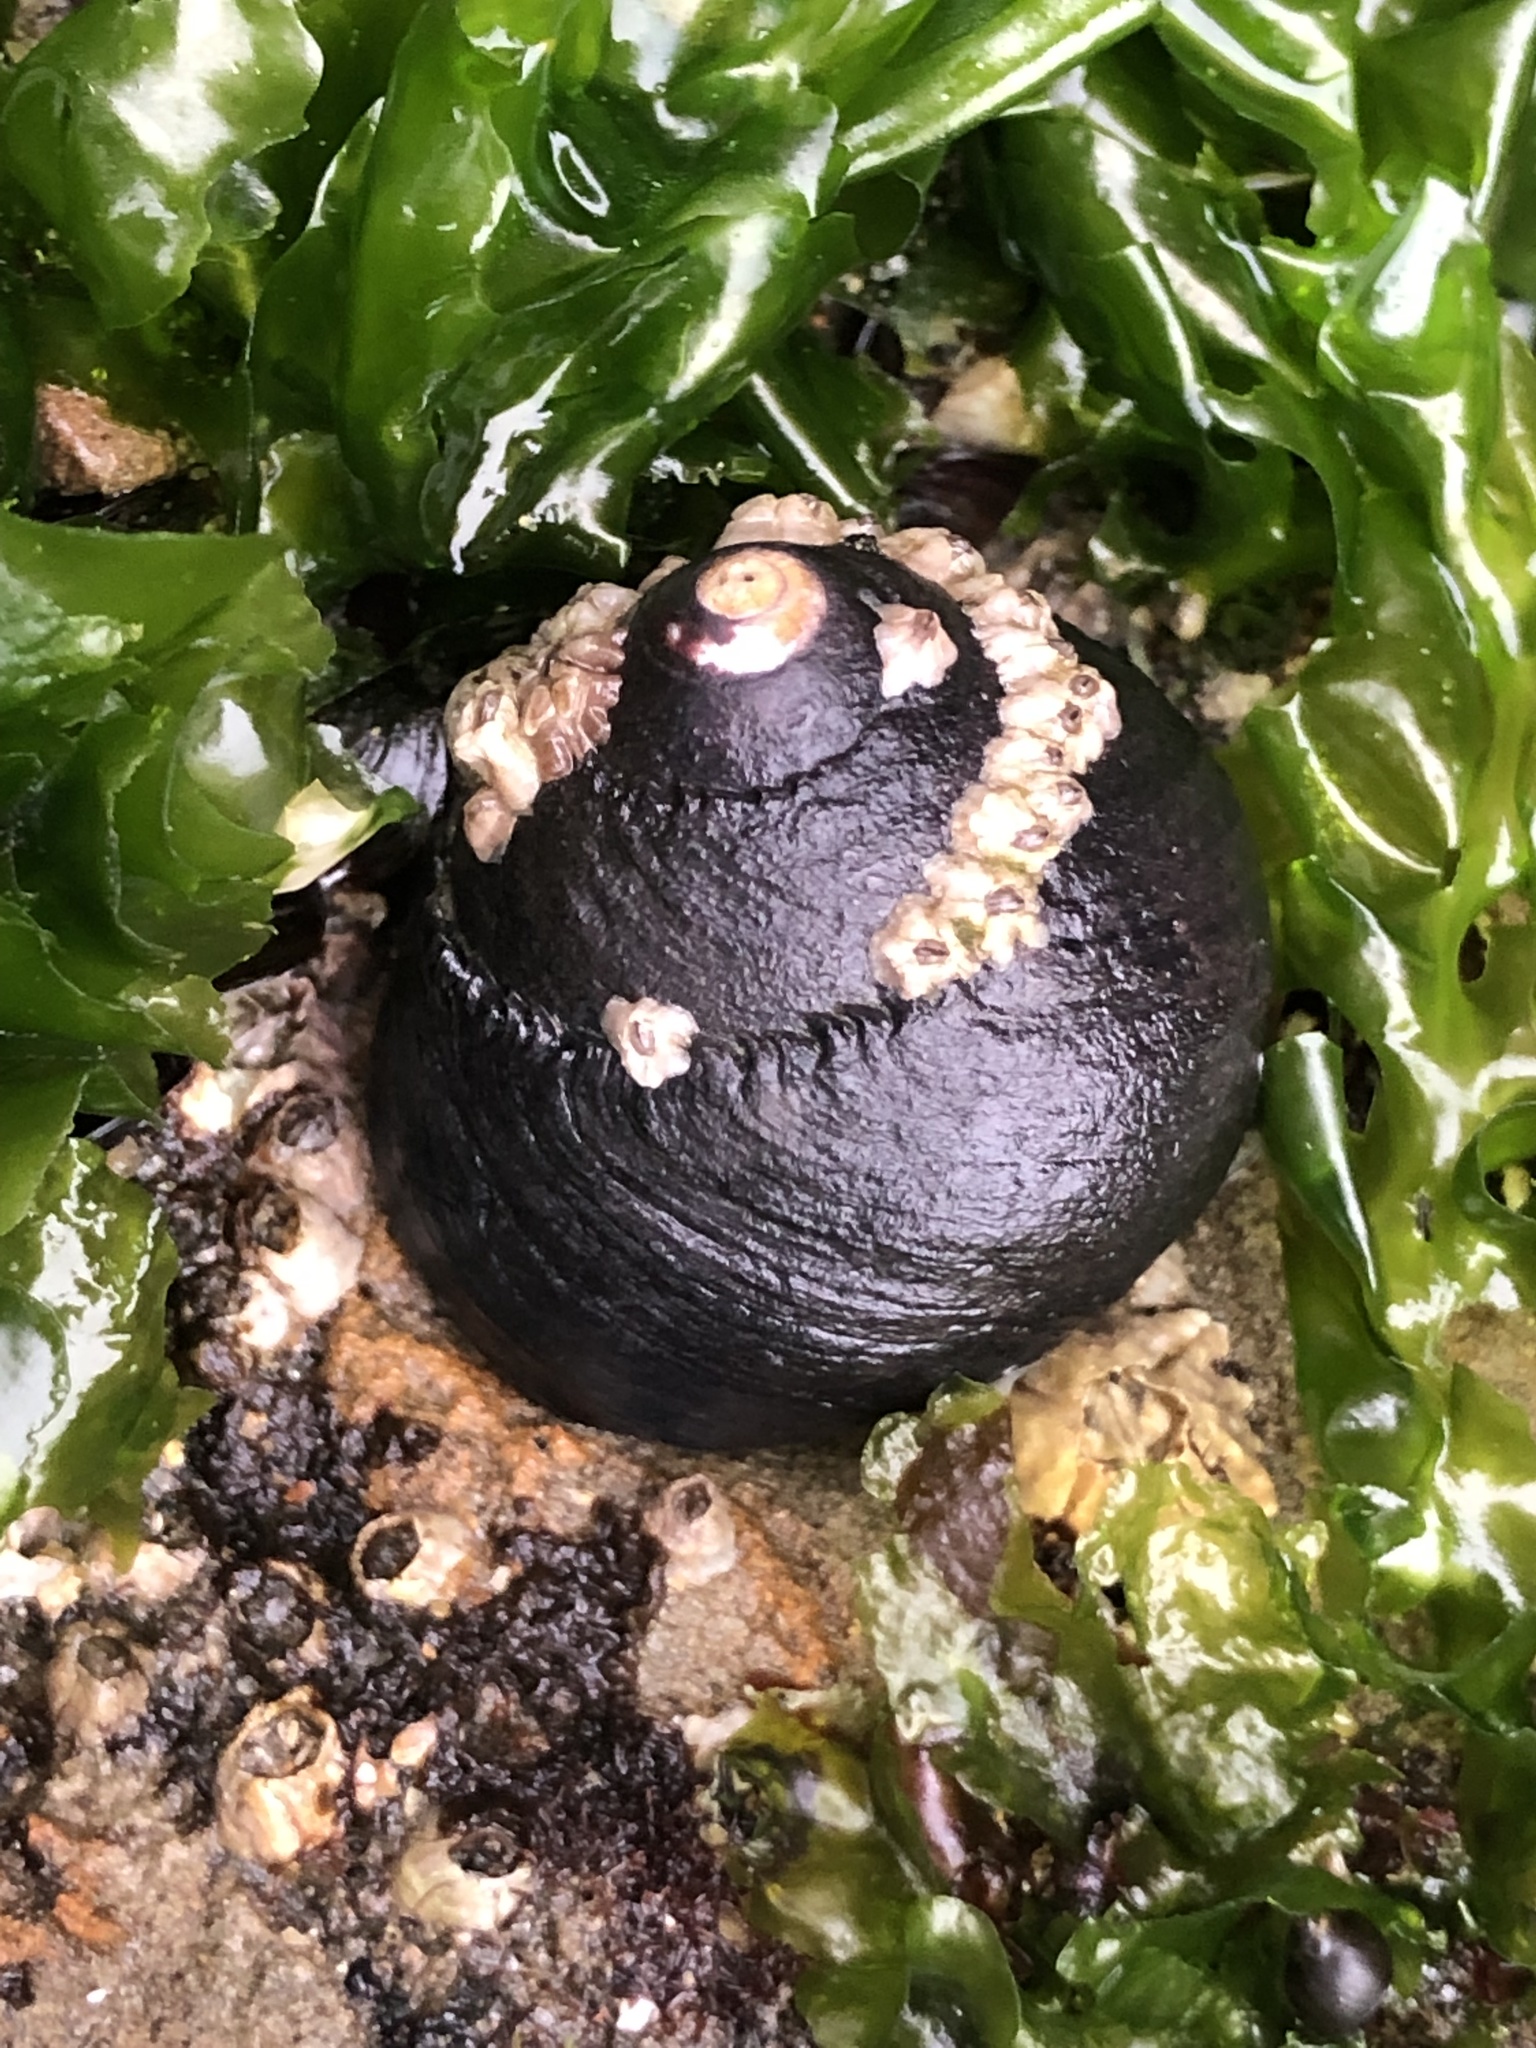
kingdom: Animalia
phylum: Mollusca
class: Gastropoda
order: Trochida
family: Tegulidae
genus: Tegula
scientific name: Tegula funebralis
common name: Black tegula
